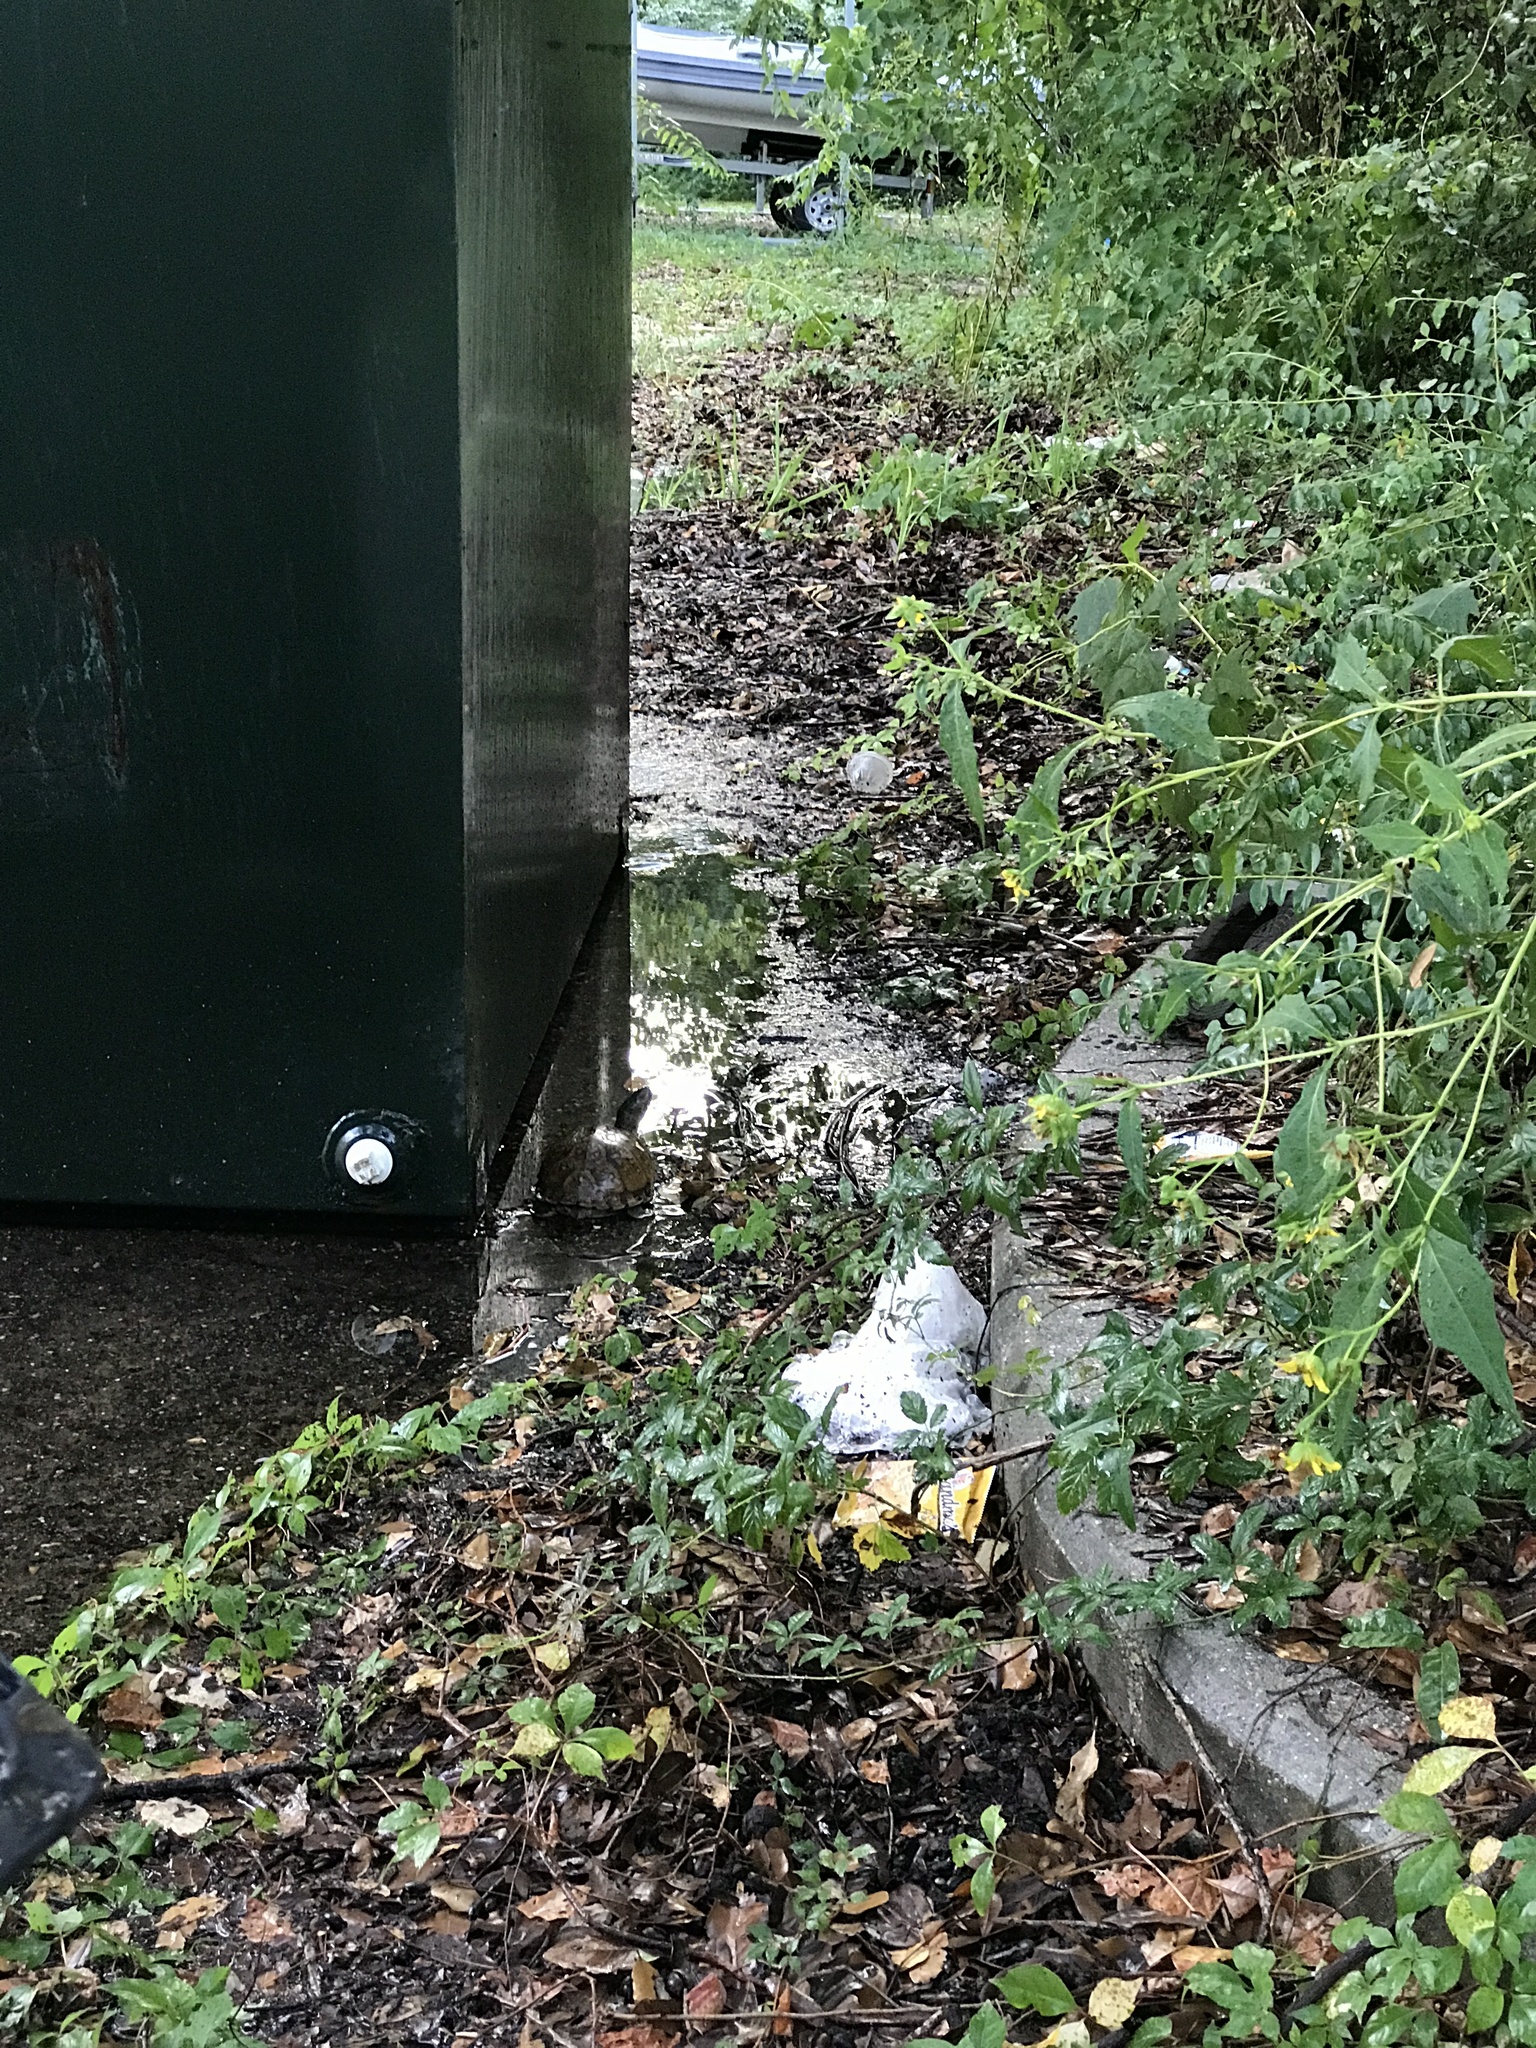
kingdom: Animalia
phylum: Chordata
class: Testudines
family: Emydidae
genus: Terrapene
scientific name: Terrapene carolina
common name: Common box turtle
